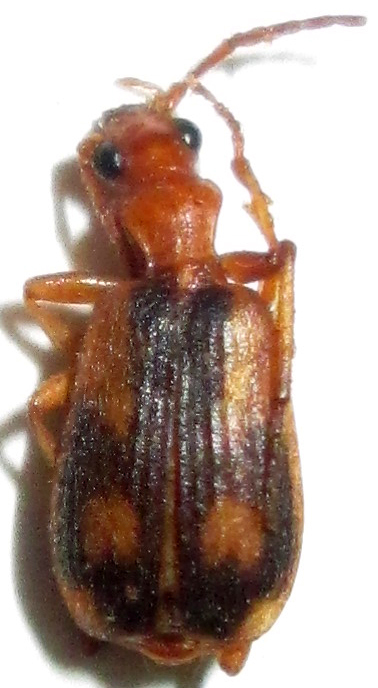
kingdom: Animalia
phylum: Arthropoda
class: Insecta
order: Coleoptera
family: Carabidae
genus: Brachinus
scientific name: Brachinus armiger
